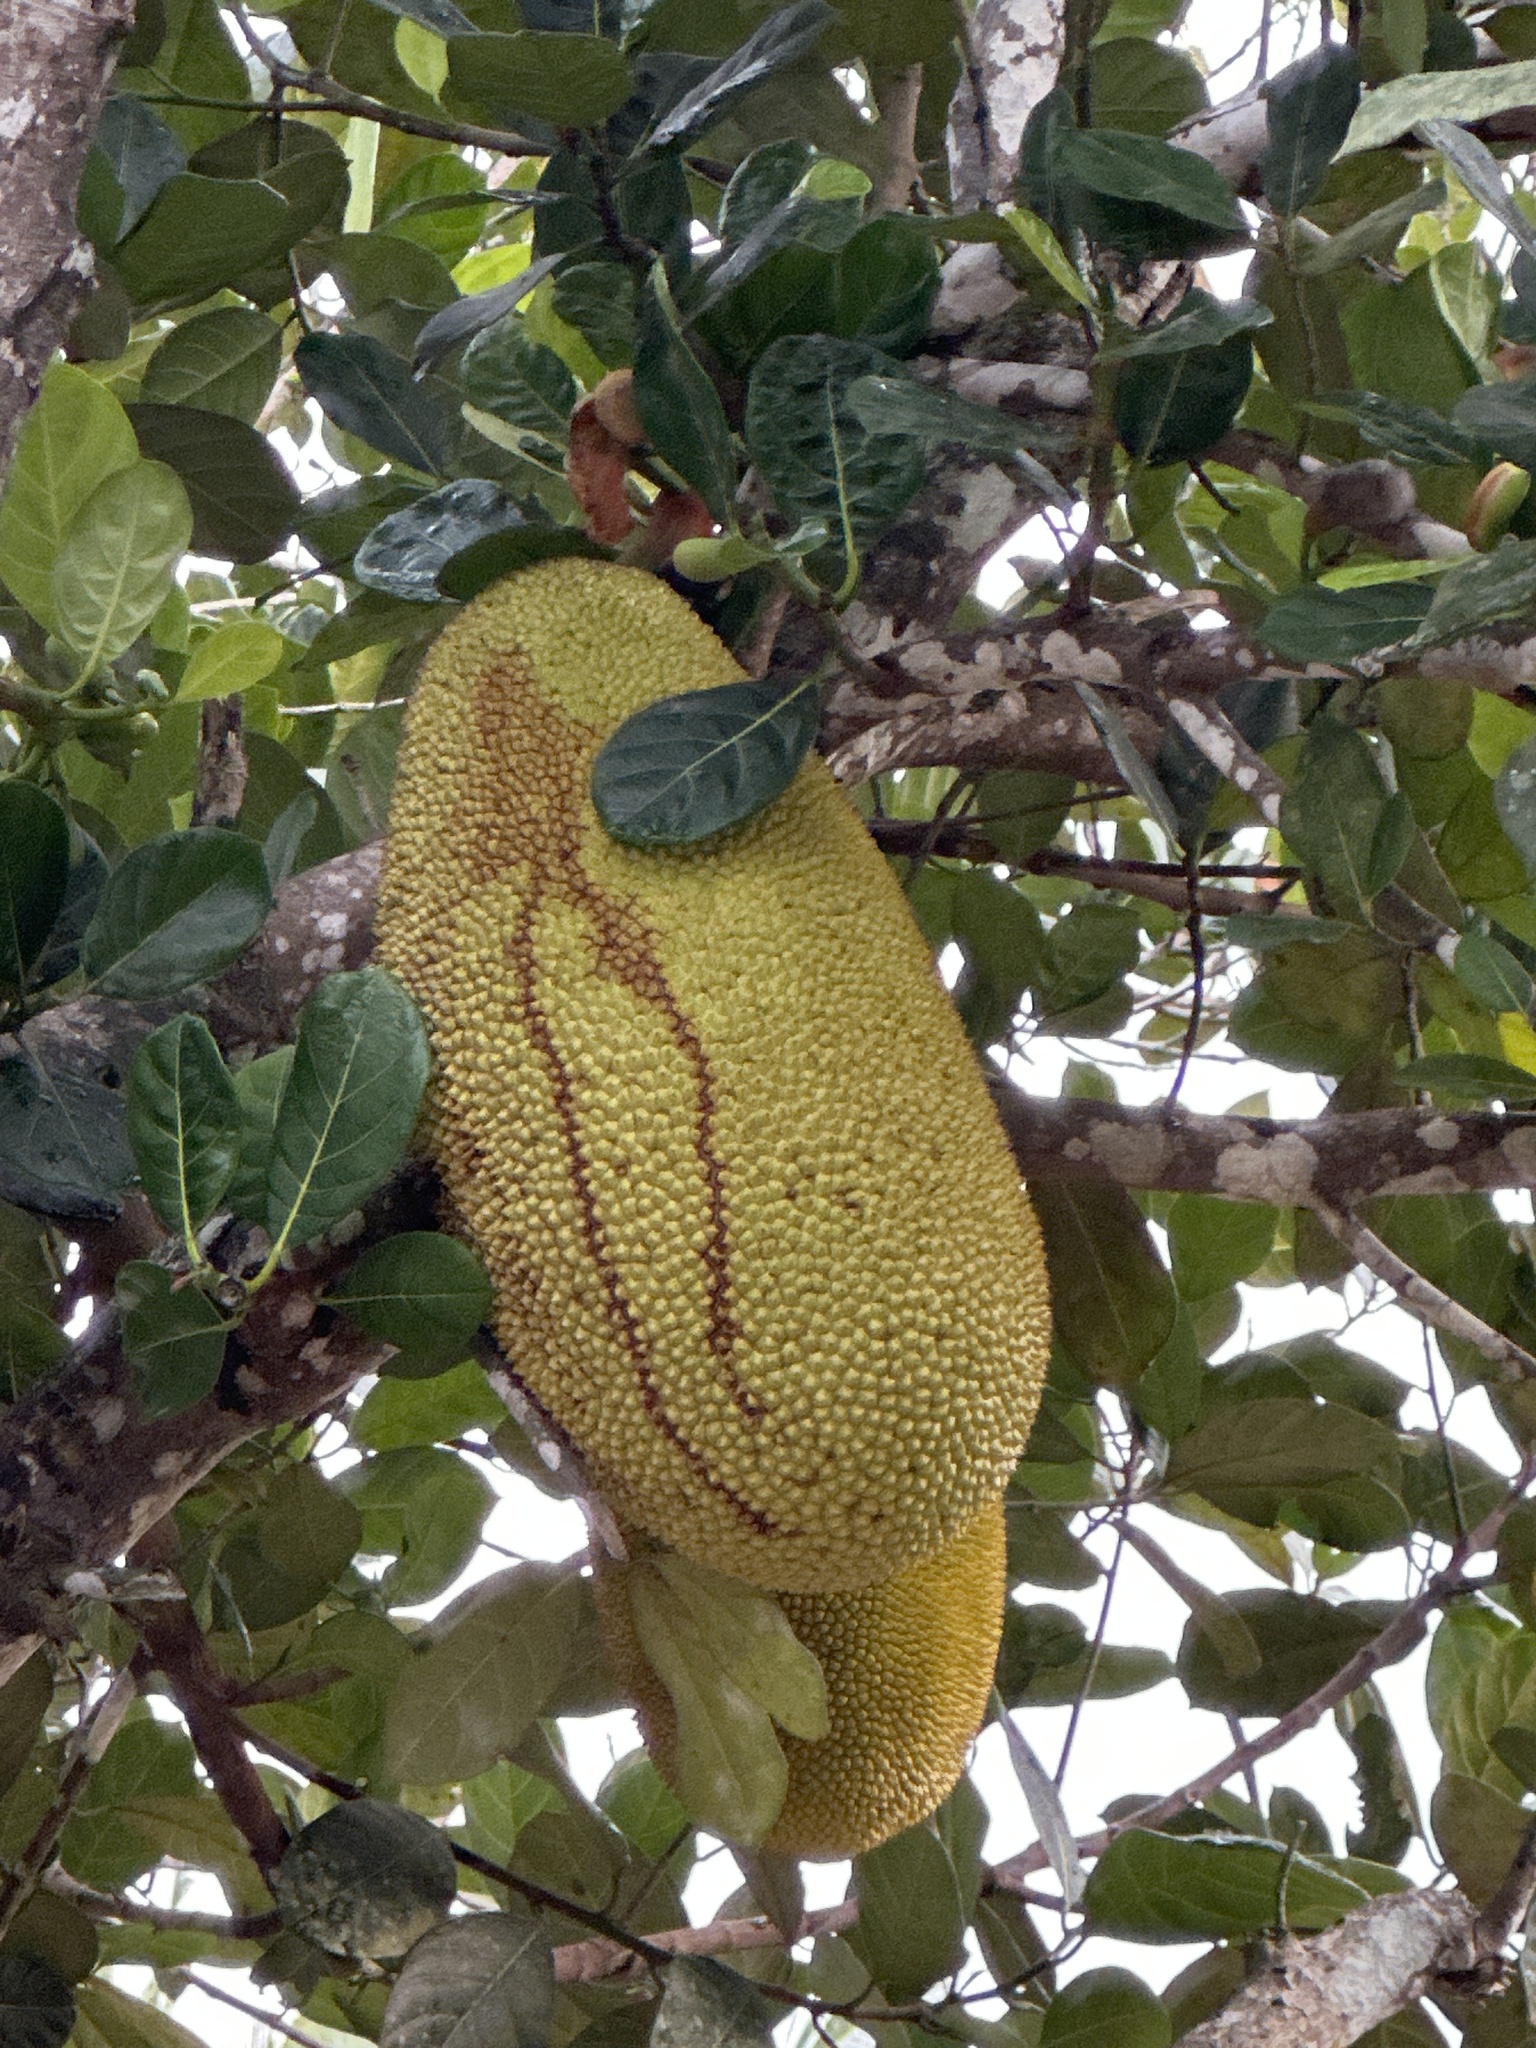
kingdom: Plantae
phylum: Tracheophyta
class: Magnoliopsida
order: Rosales
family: Moraceae
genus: Artocarpus
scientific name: Artocarpus heterophyllus
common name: Jackfruit
